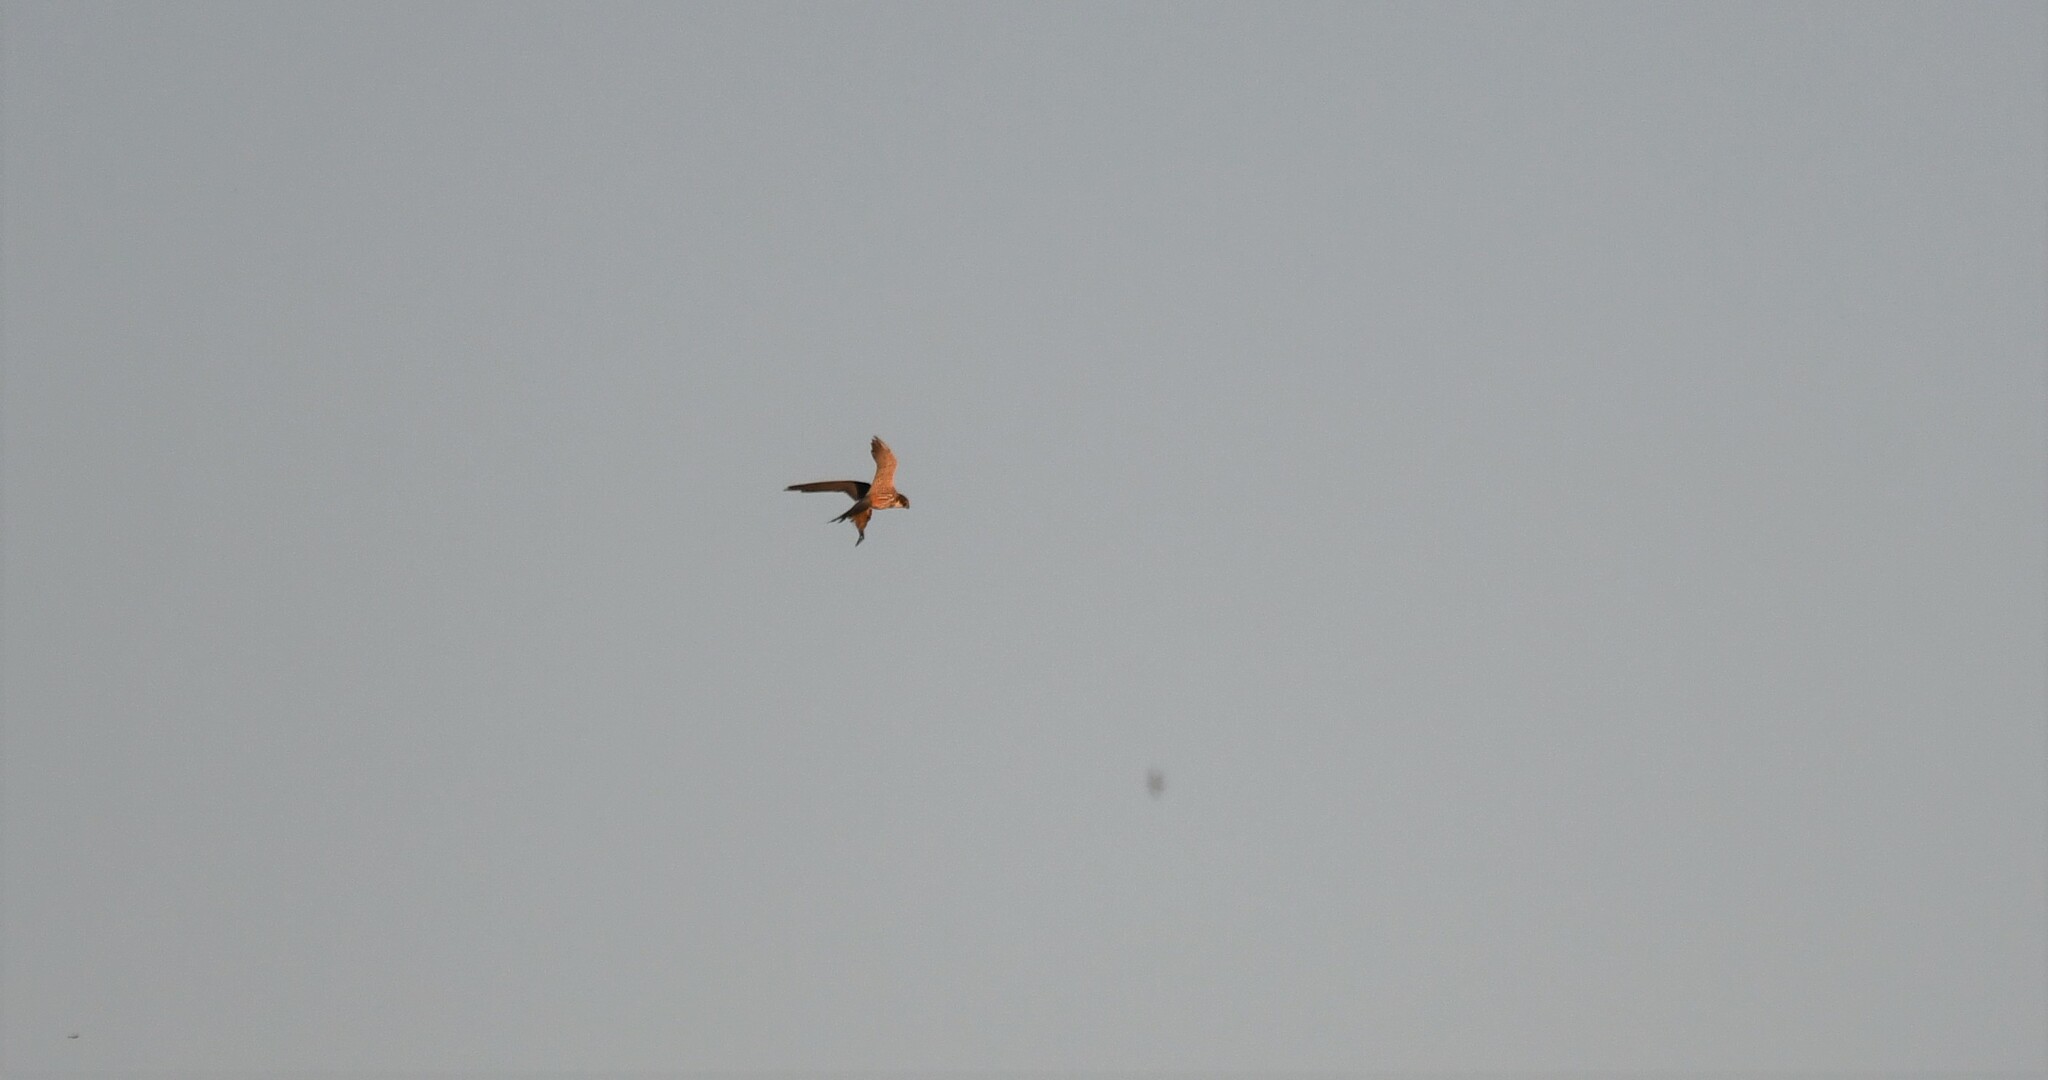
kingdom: Animalia
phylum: Chordata
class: Aves
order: Falconiformes
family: Falconidae
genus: Falco
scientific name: Falco subbuteo
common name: Eurasian hobby
